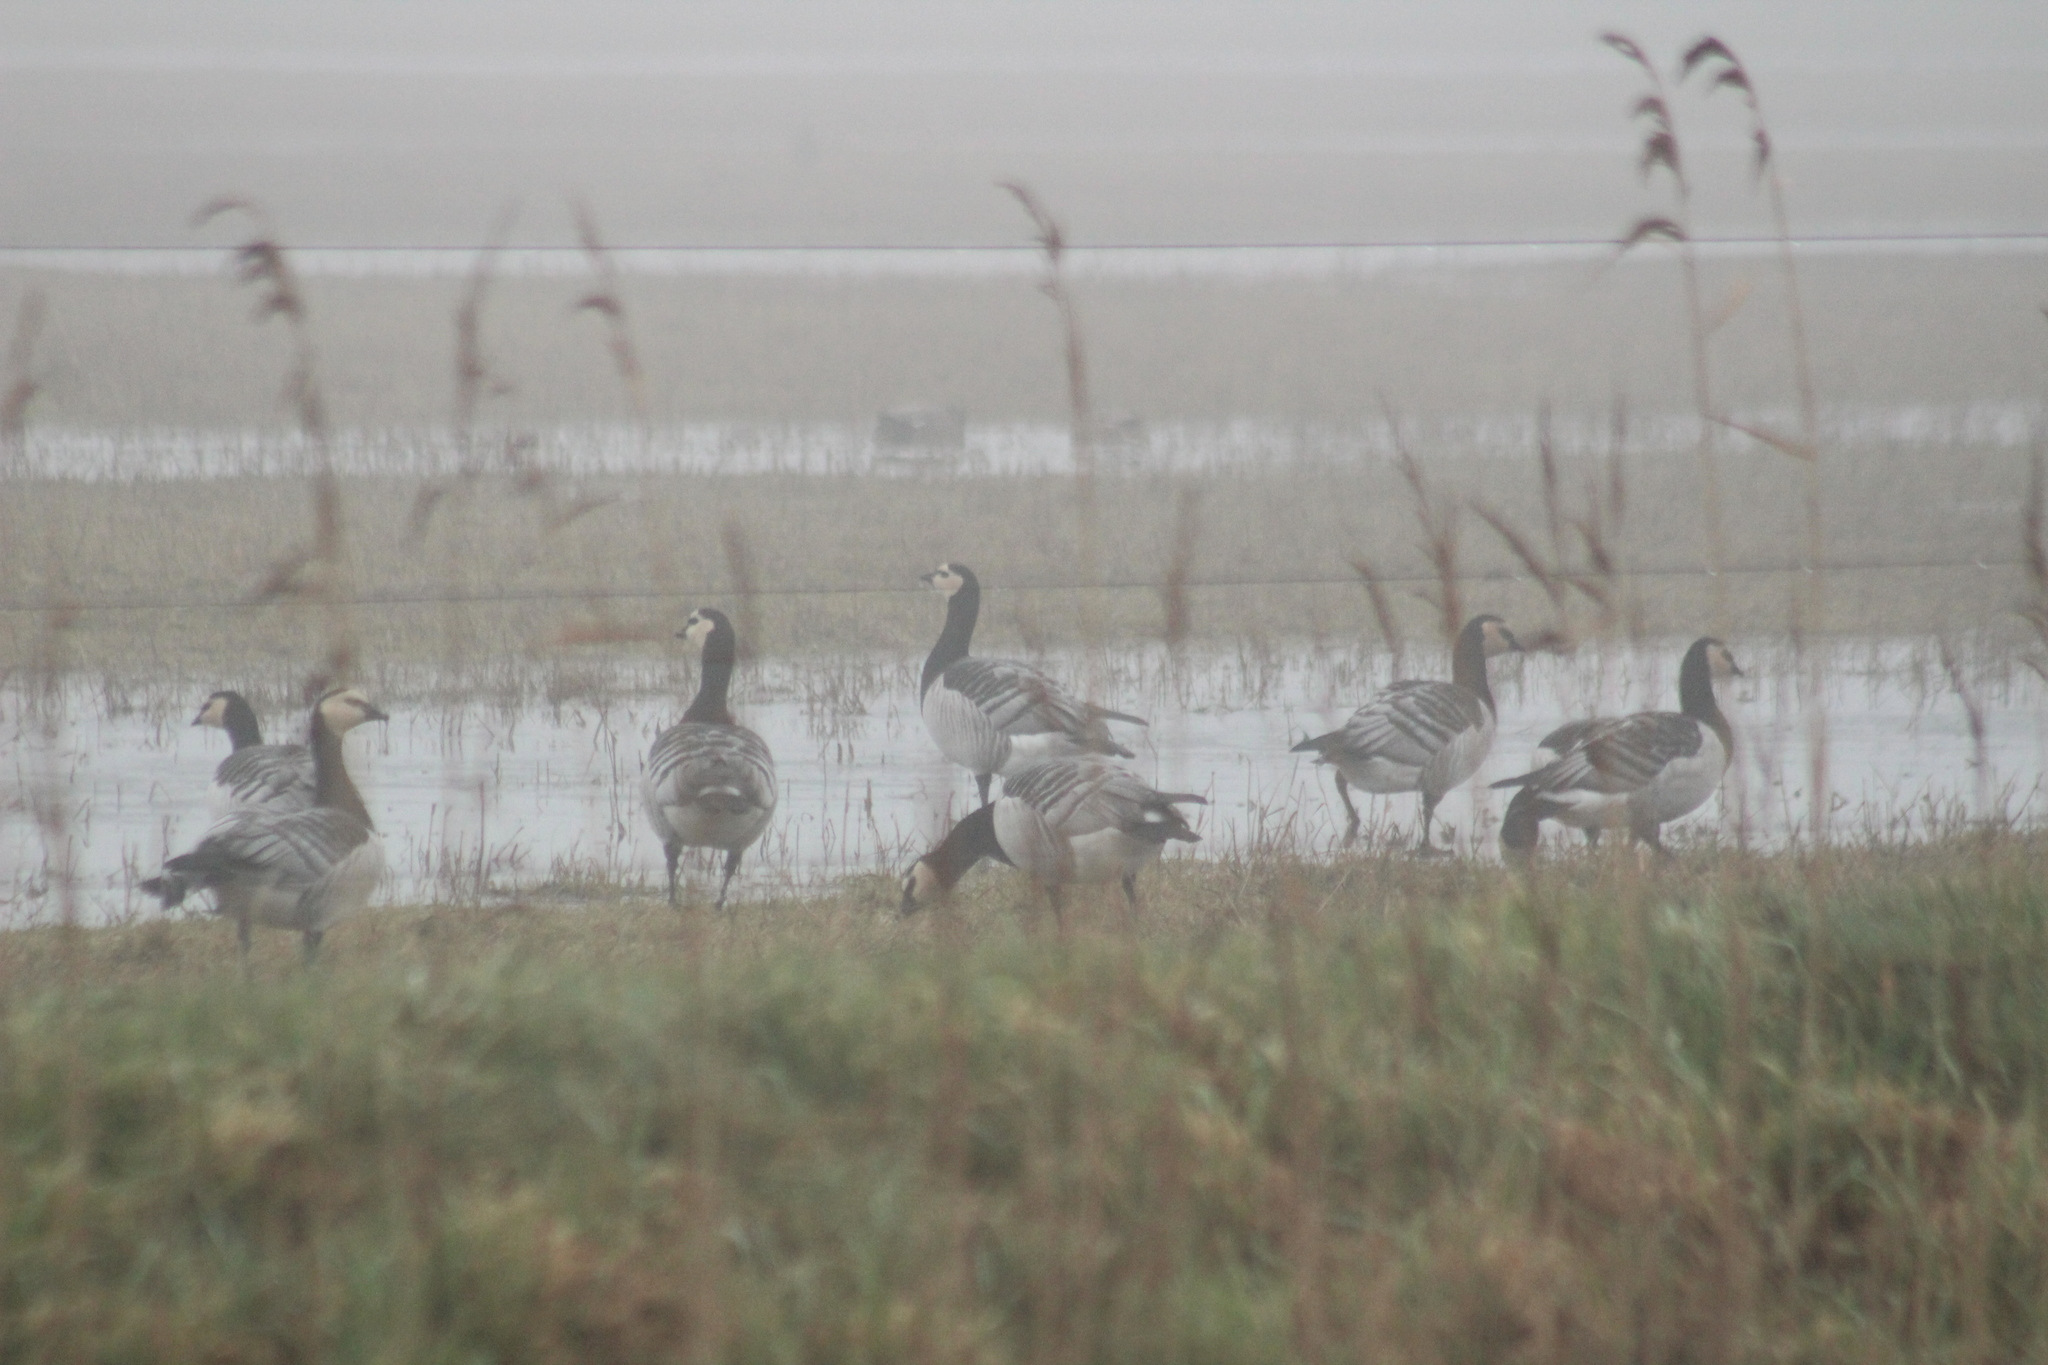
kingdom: Animalia
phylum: Chordata
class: Aves
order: Anseriformes
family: Anatidae
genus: Branta
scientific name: Branta leucopsis
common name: Barnacle goose
